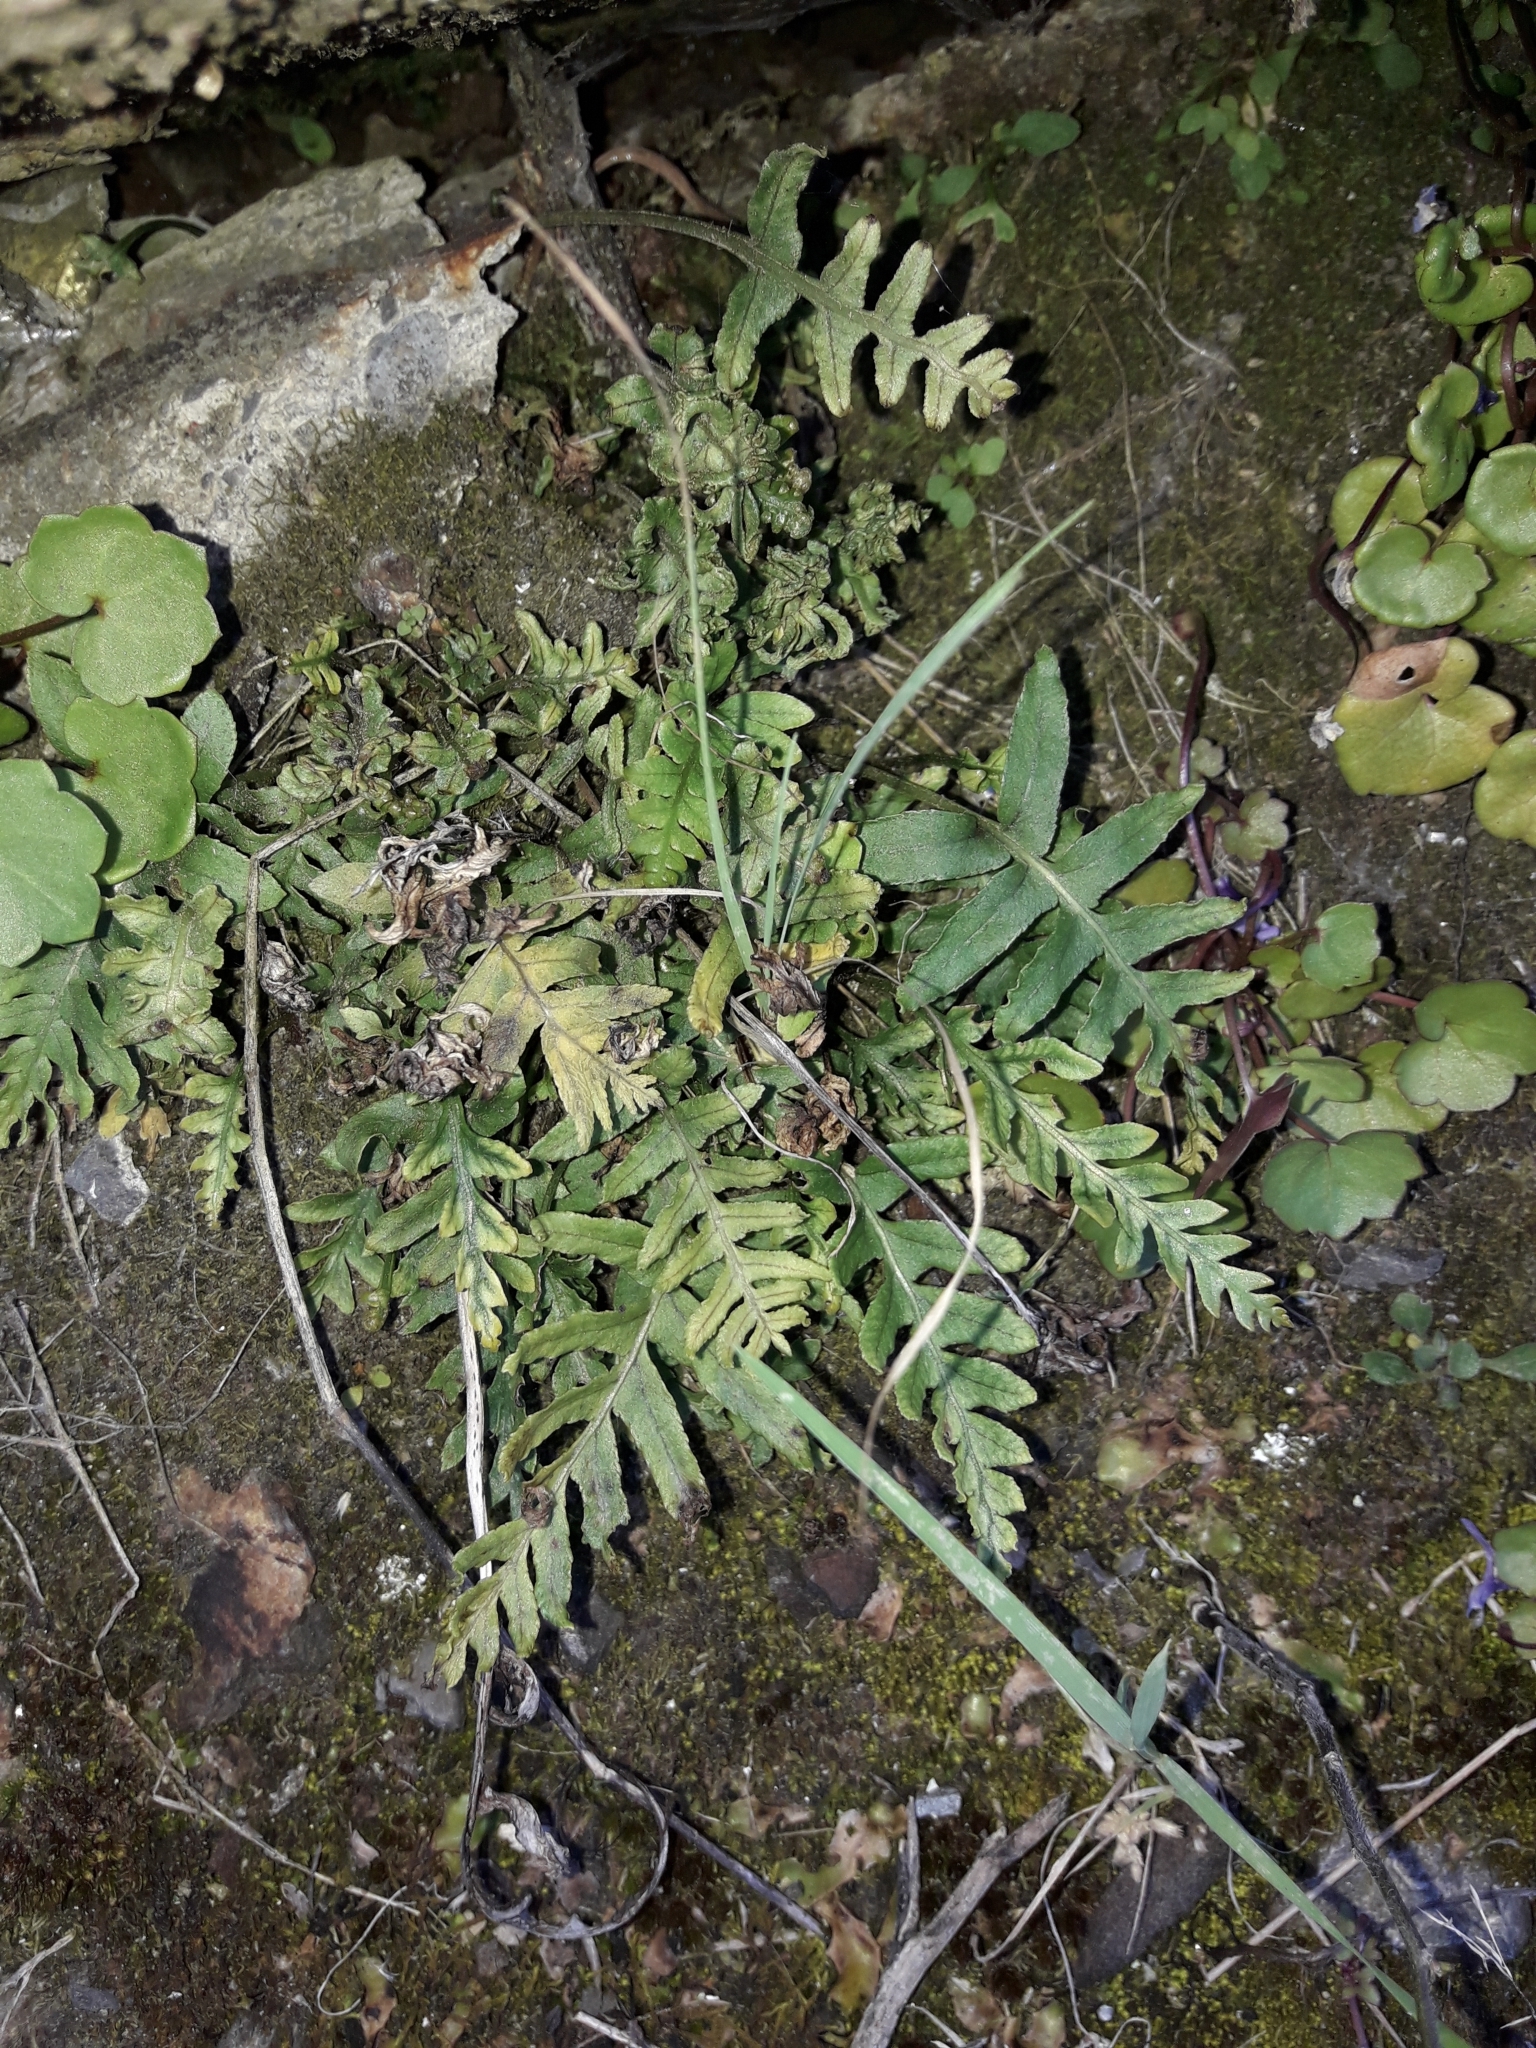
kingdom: Plantae
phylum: Tracheophyta
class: Polypodiopsida
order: Polypodiales
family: Polypodiaceae
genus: Polypodium
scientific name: Polypodium vulgare
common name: Common polypody
